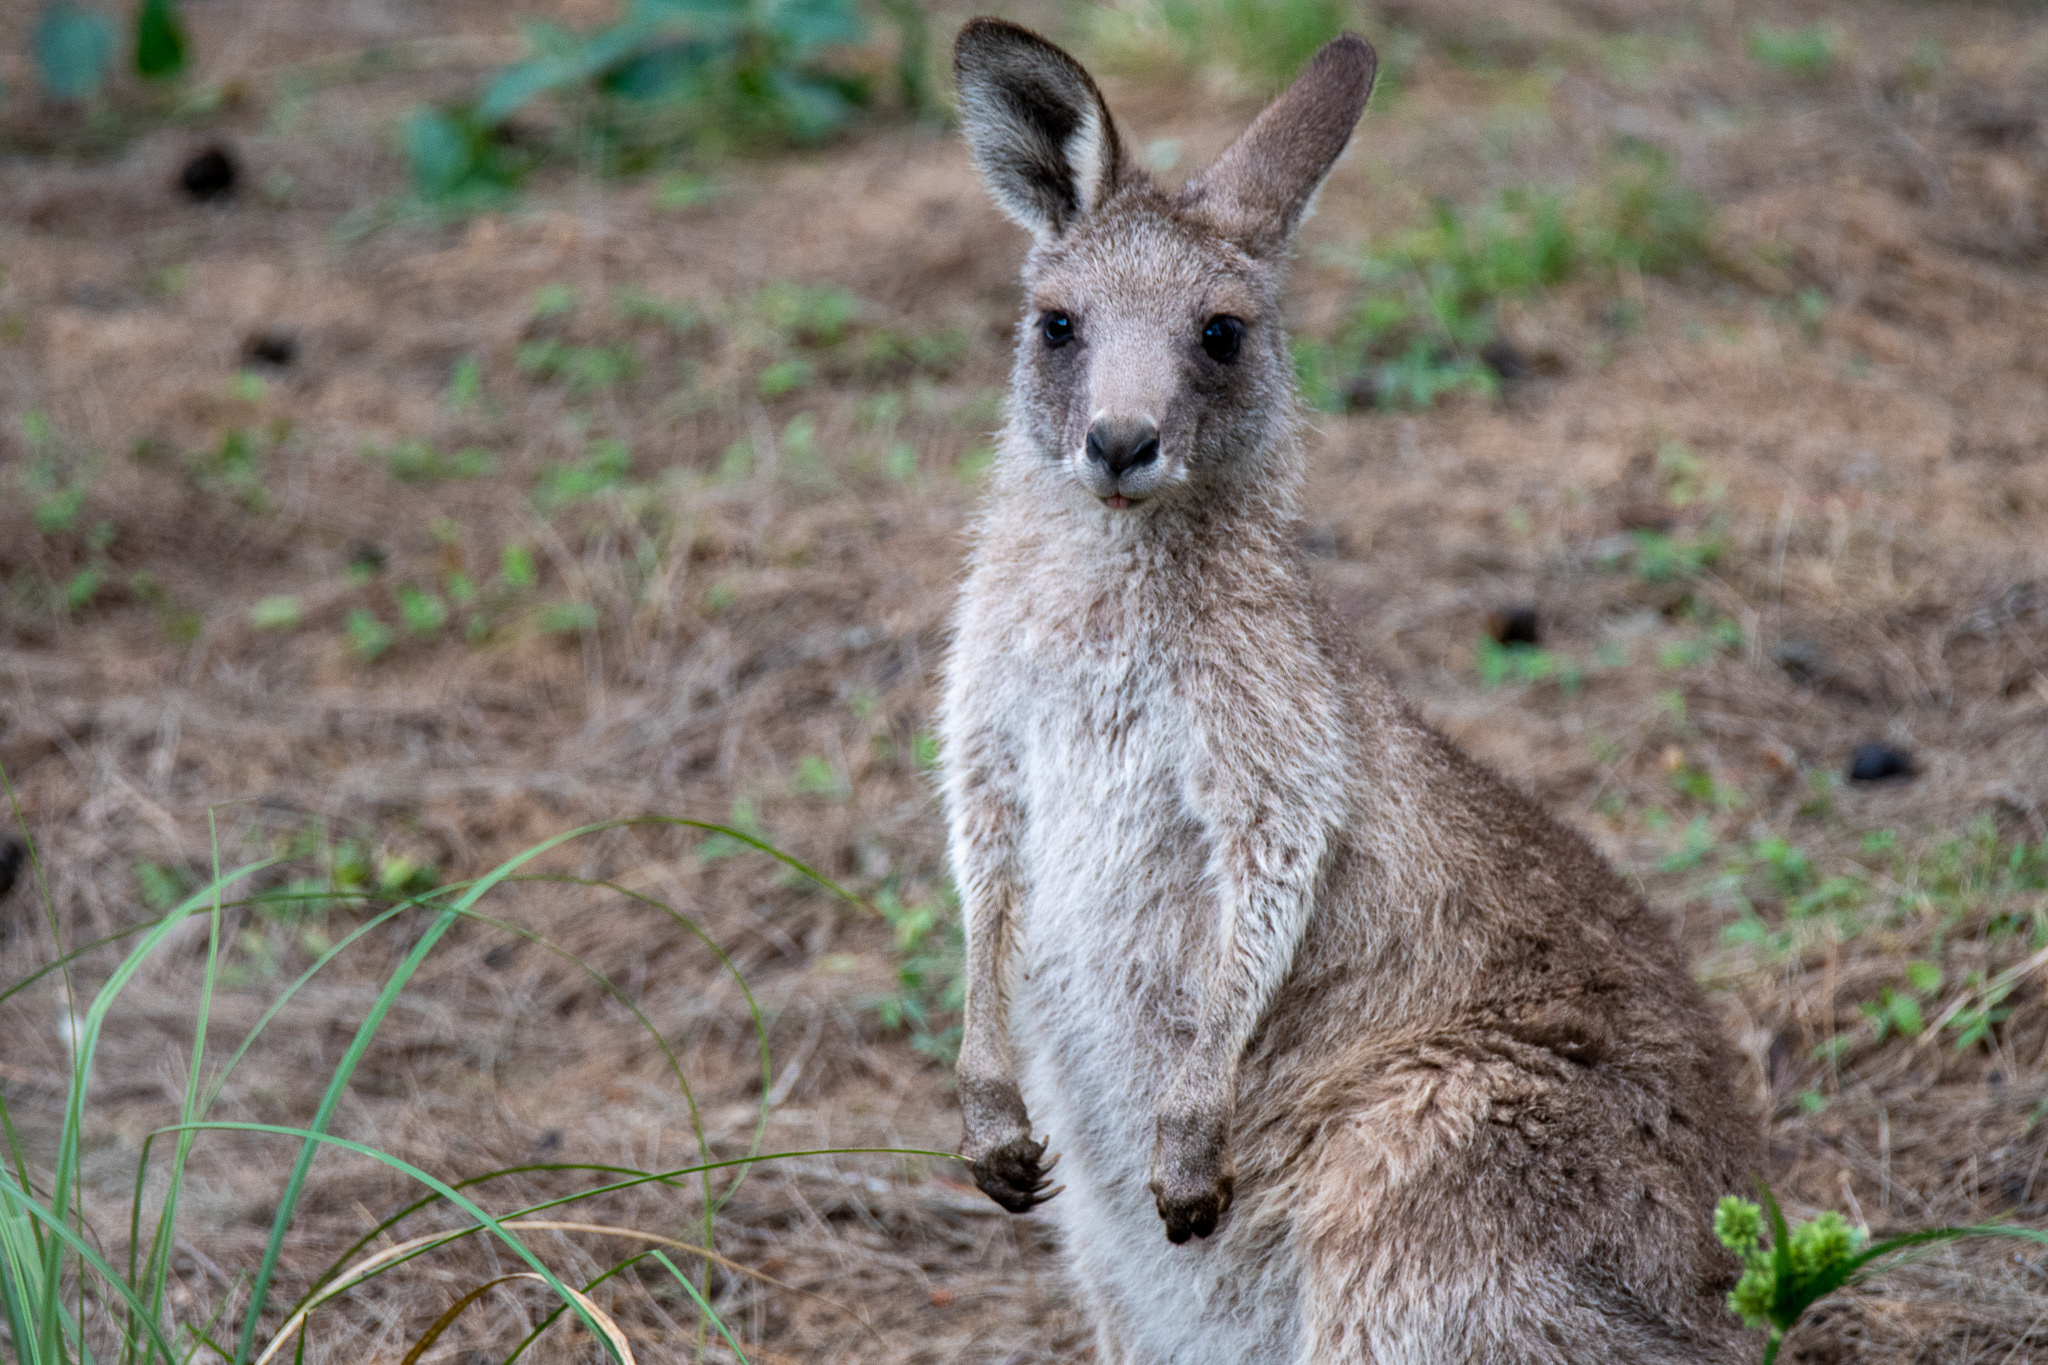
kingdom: Animalia
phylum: Chordata
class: Mammalia
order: Diprotodontia
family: Macropodidae
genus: Macropus
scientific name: Macropus giganteus
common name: Eastern grey kangaroo
